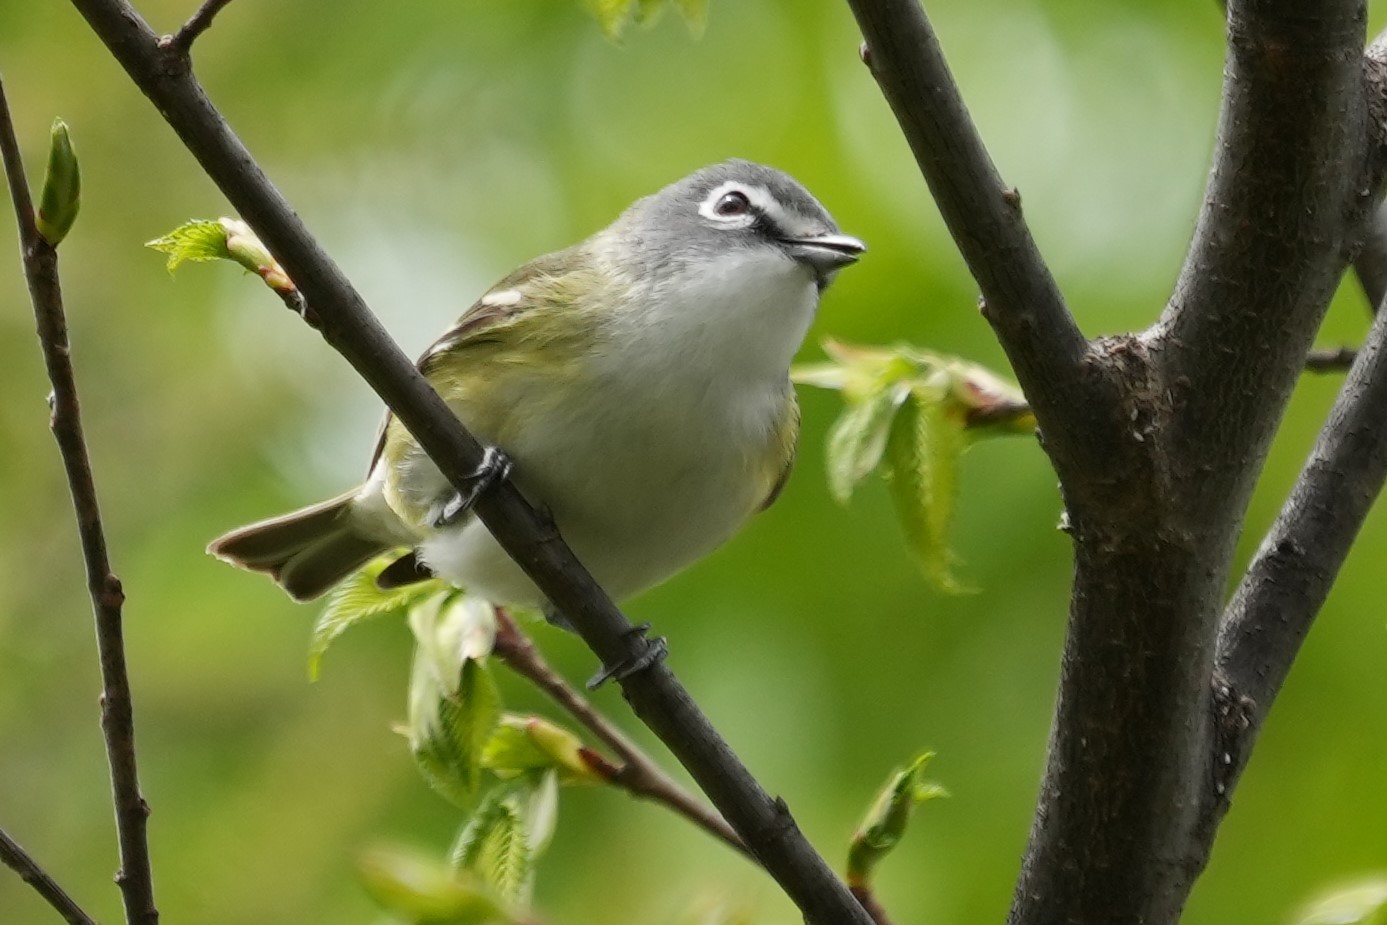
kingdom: Animalia
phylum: Chordata
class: Aves
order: Passeriformes
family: Vireonidae
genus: Vireo
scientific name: Vireo solitarius
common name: Blue-headed vireo
